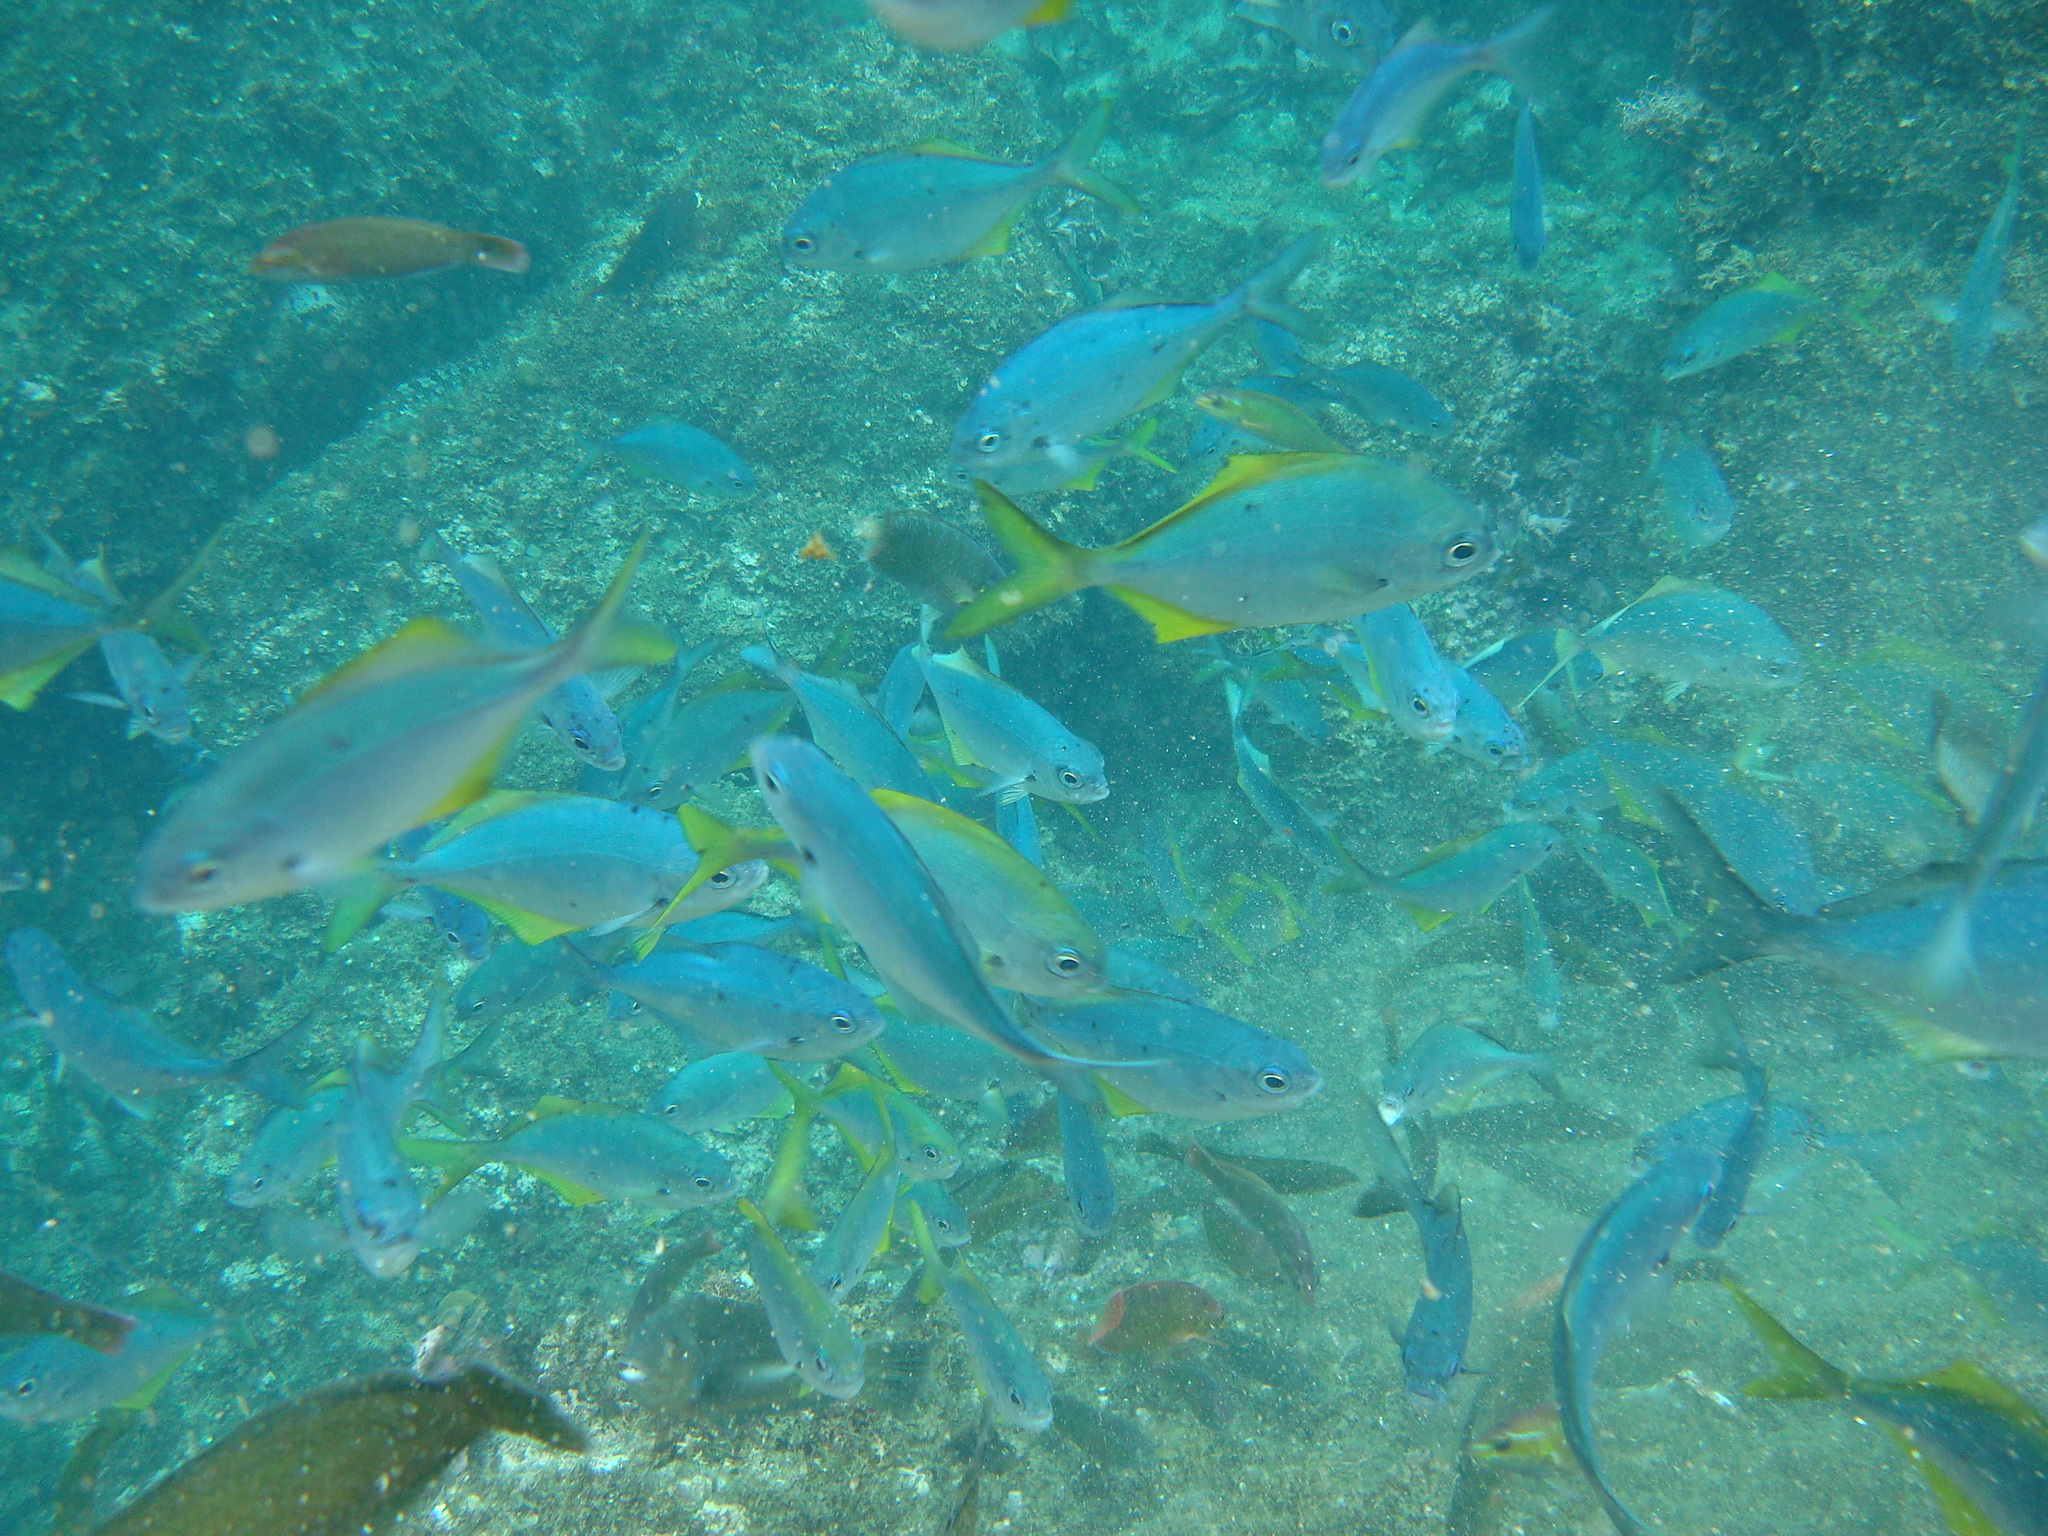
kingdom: Animalia
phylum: Chordata
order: Perciformes
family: Kyphosidae
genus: Scorpis
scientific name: Scorpis chilensis
